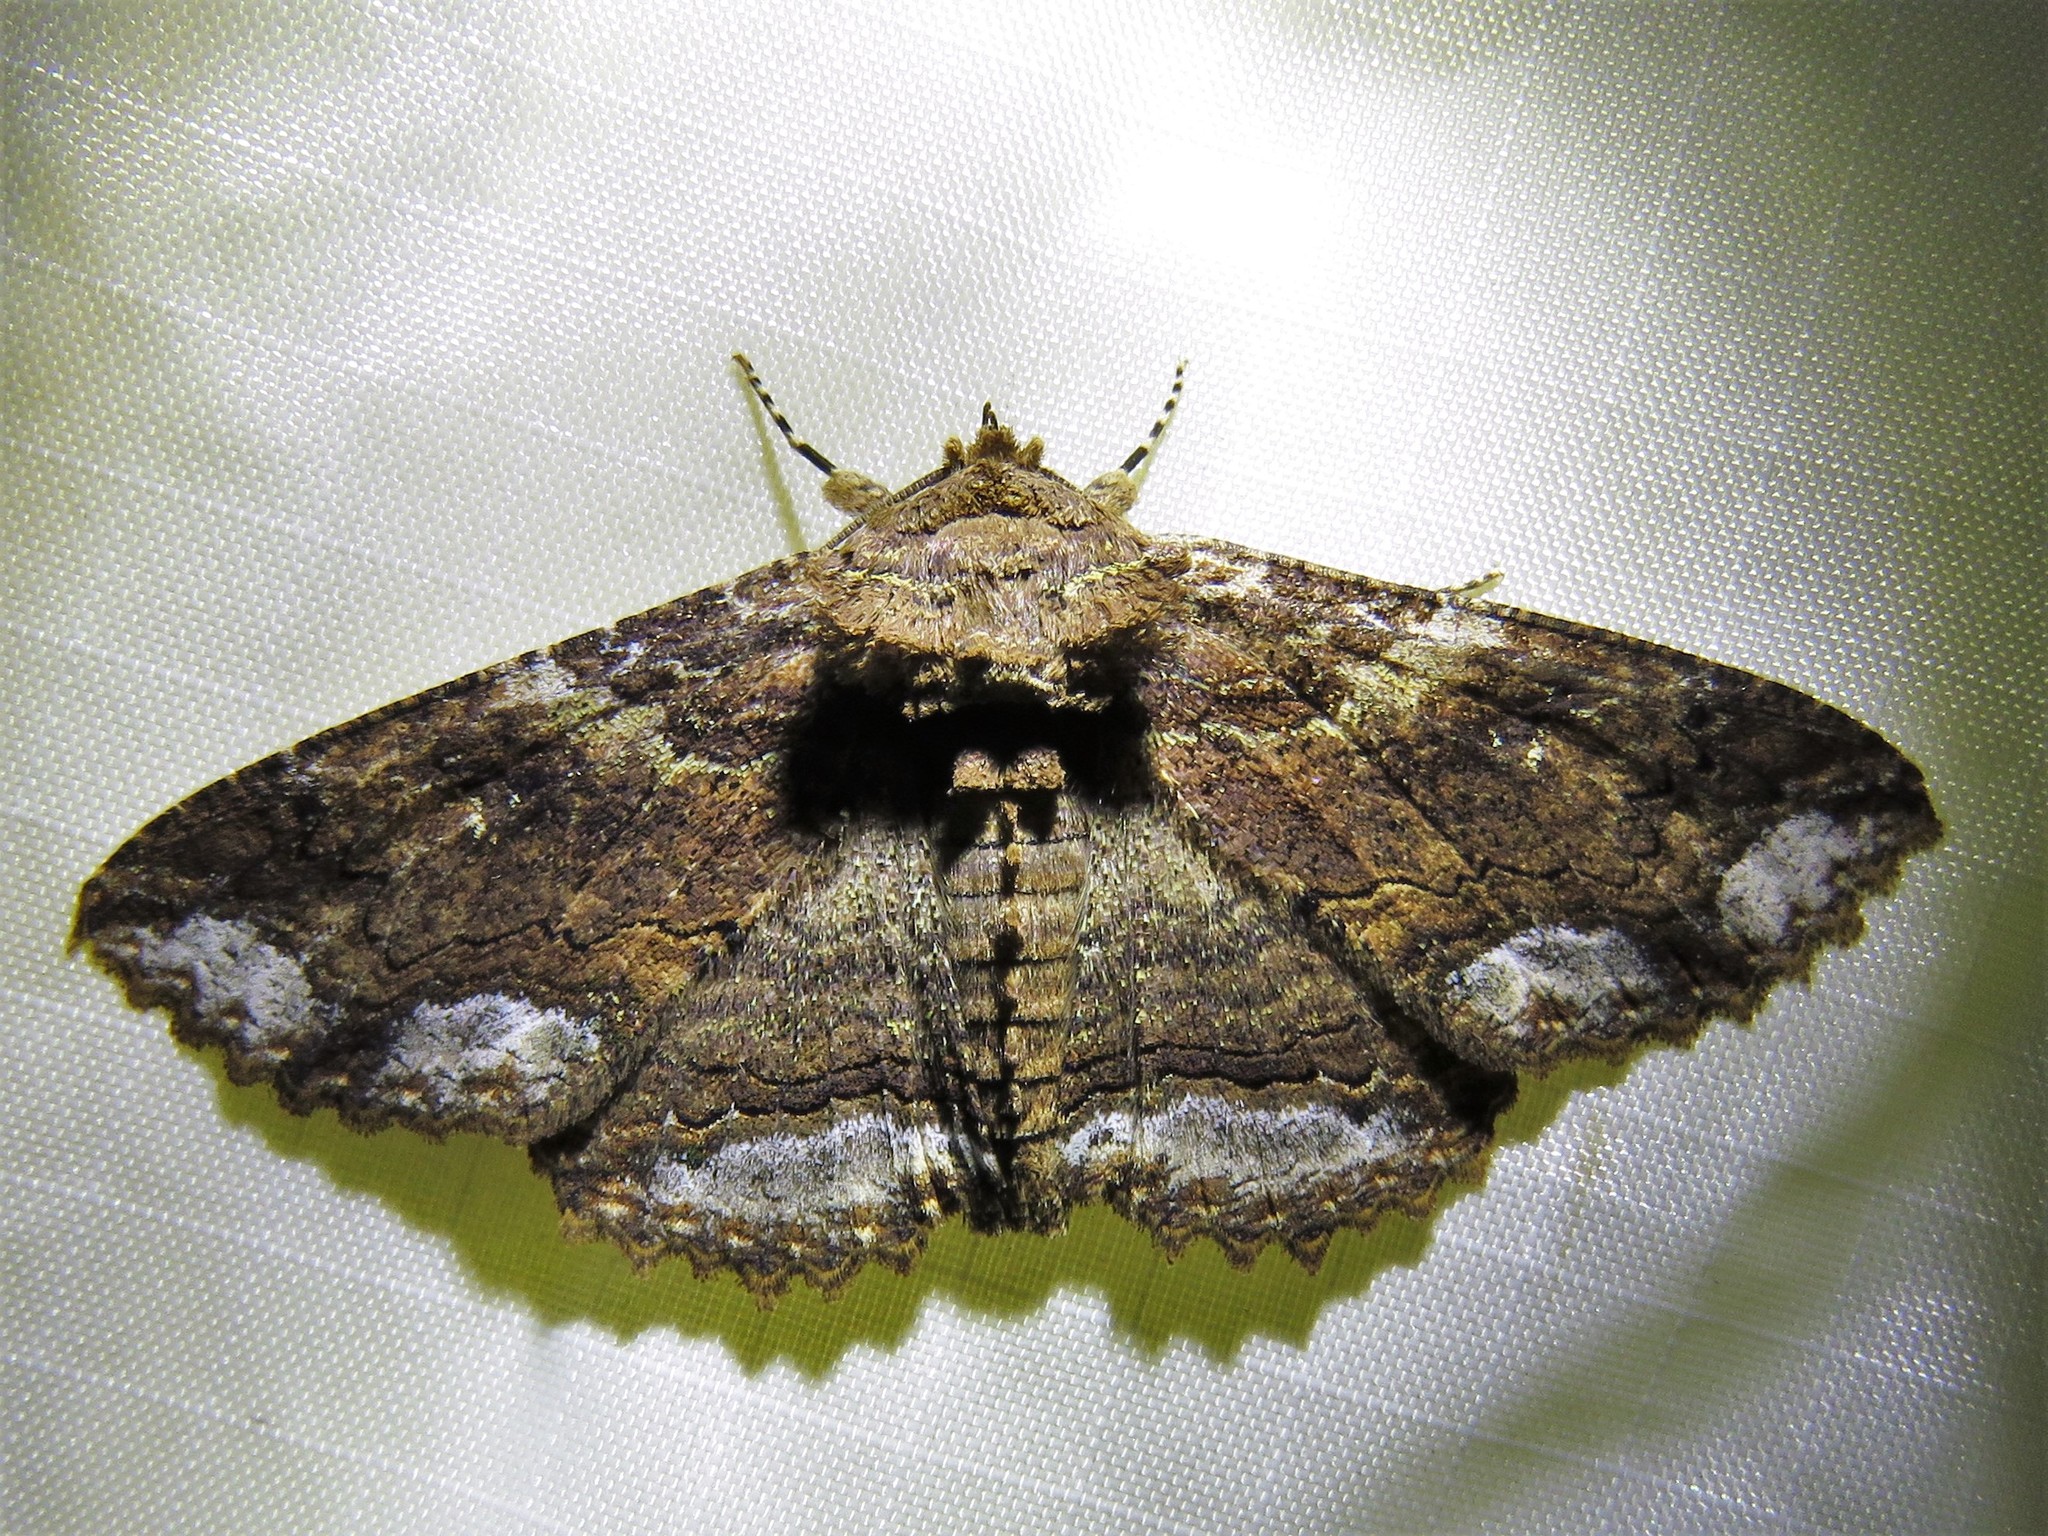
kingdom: Animalia
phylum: Arthropoda
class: Insecta
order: Lepidoptera
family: Erebidae
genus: Zale
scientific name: Zale lunata
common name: Lunate zale moth
